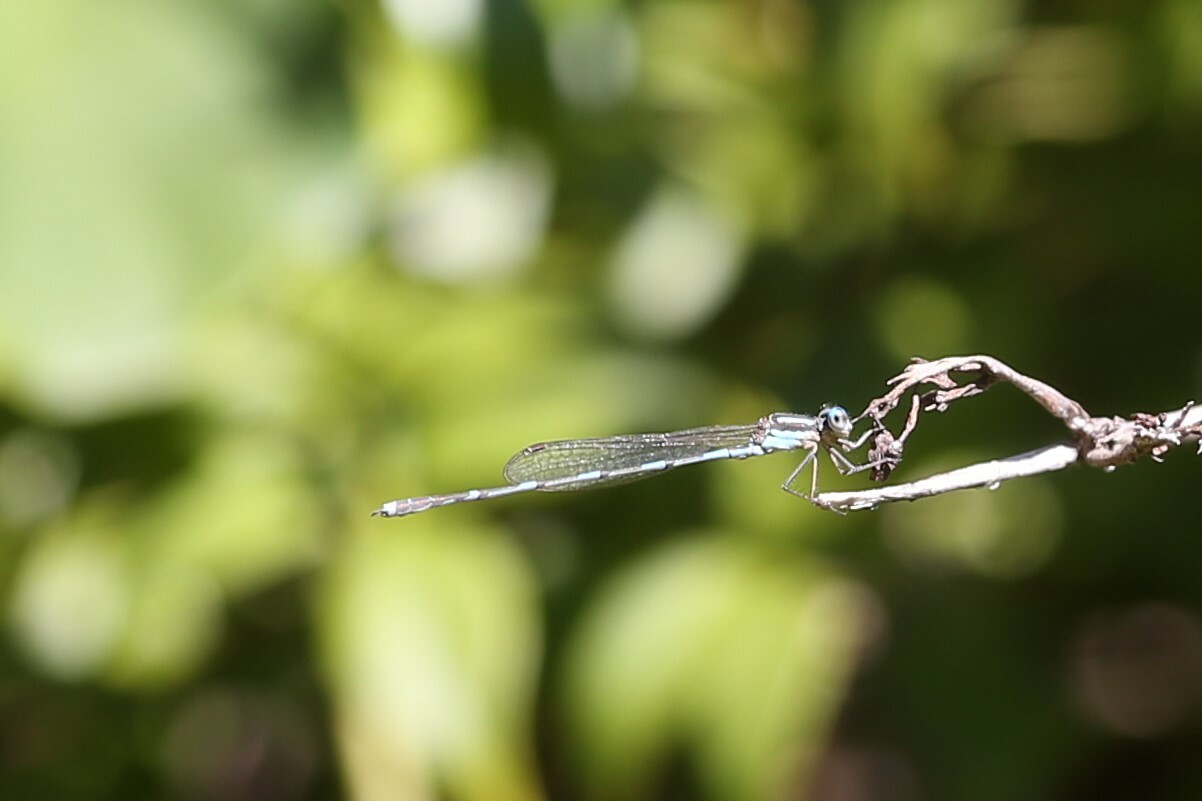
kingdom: Animalia
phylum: Arthropoda
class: Insecta
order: Odonata
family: Lestidae
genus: Austrolestes
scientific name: Austrolestes leda
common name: Wandering ringtail
